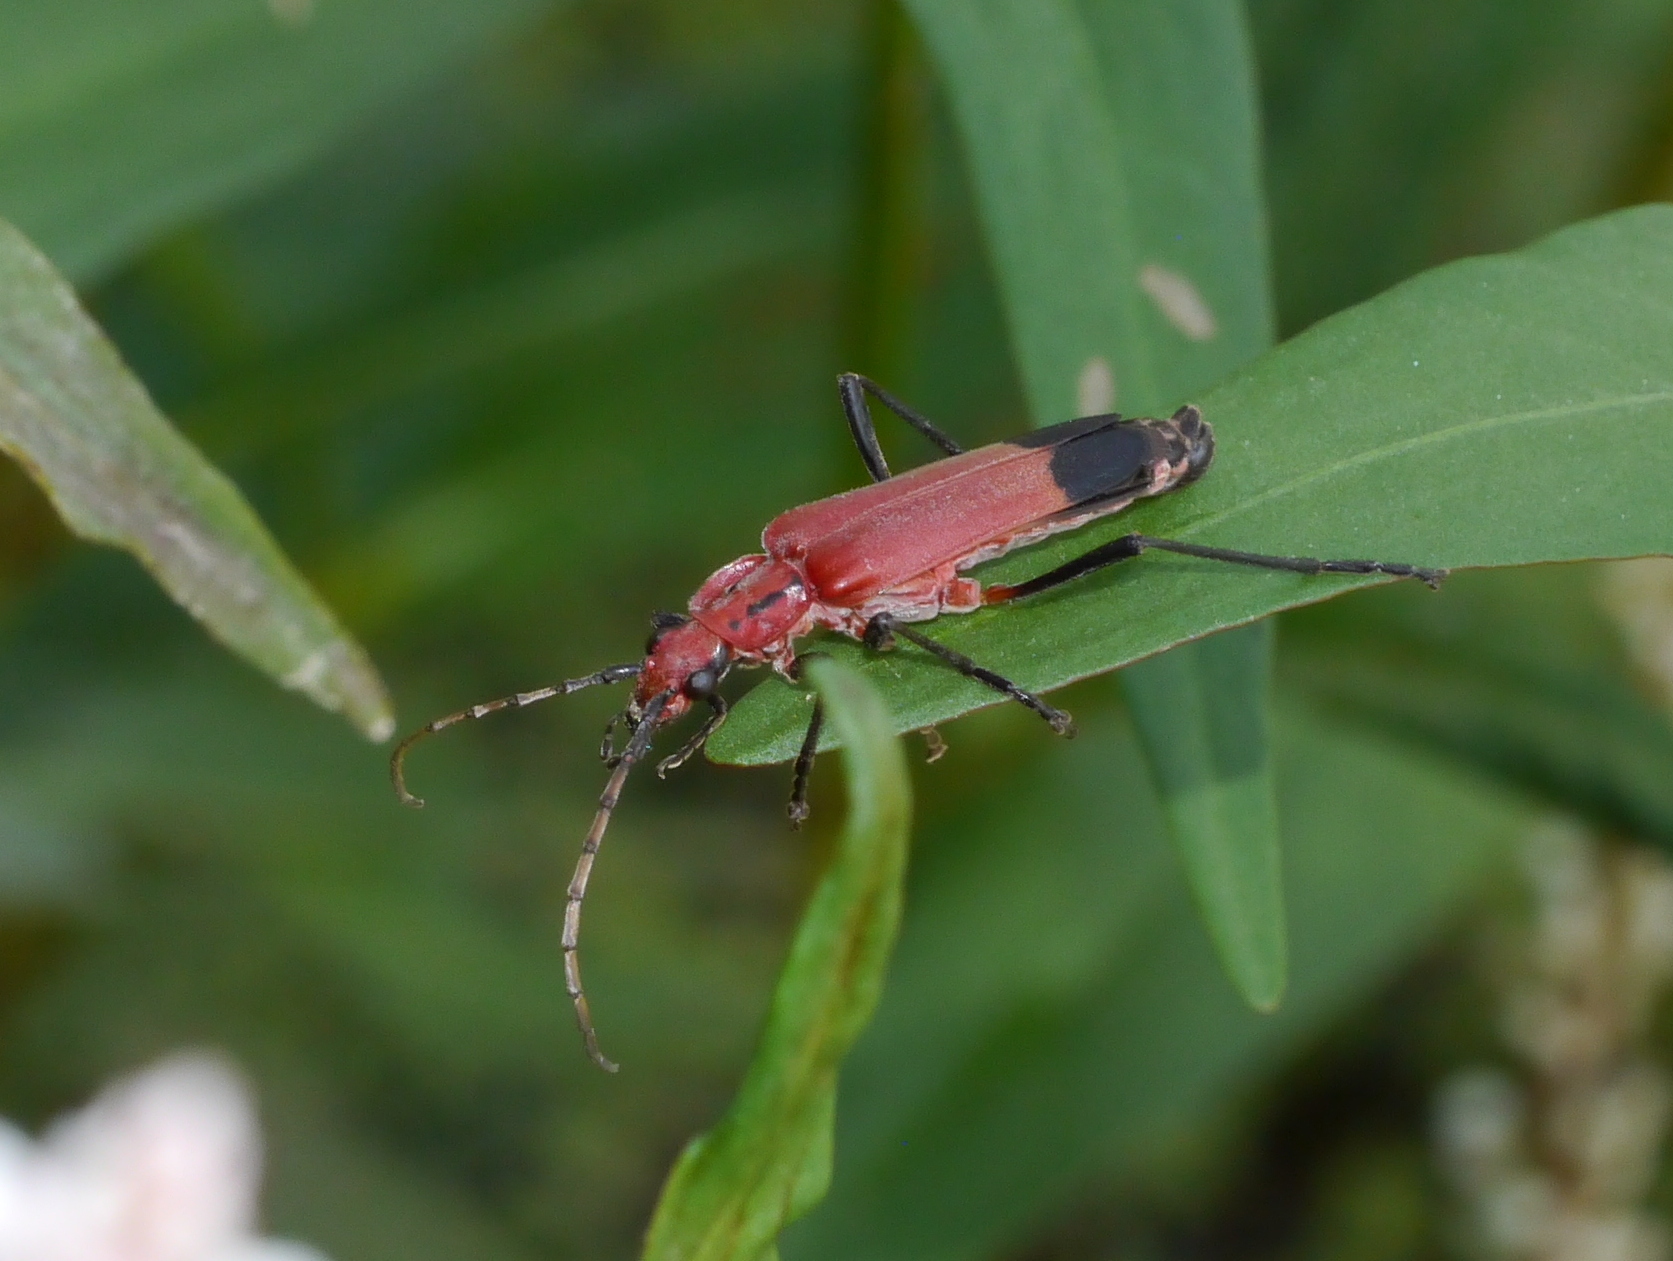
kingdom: Animalia
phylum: Arthropoda
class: Insecta
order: Coleoptera
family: Cantharidae
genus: Chauliognathus
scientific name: Chauliognathus lecontei
